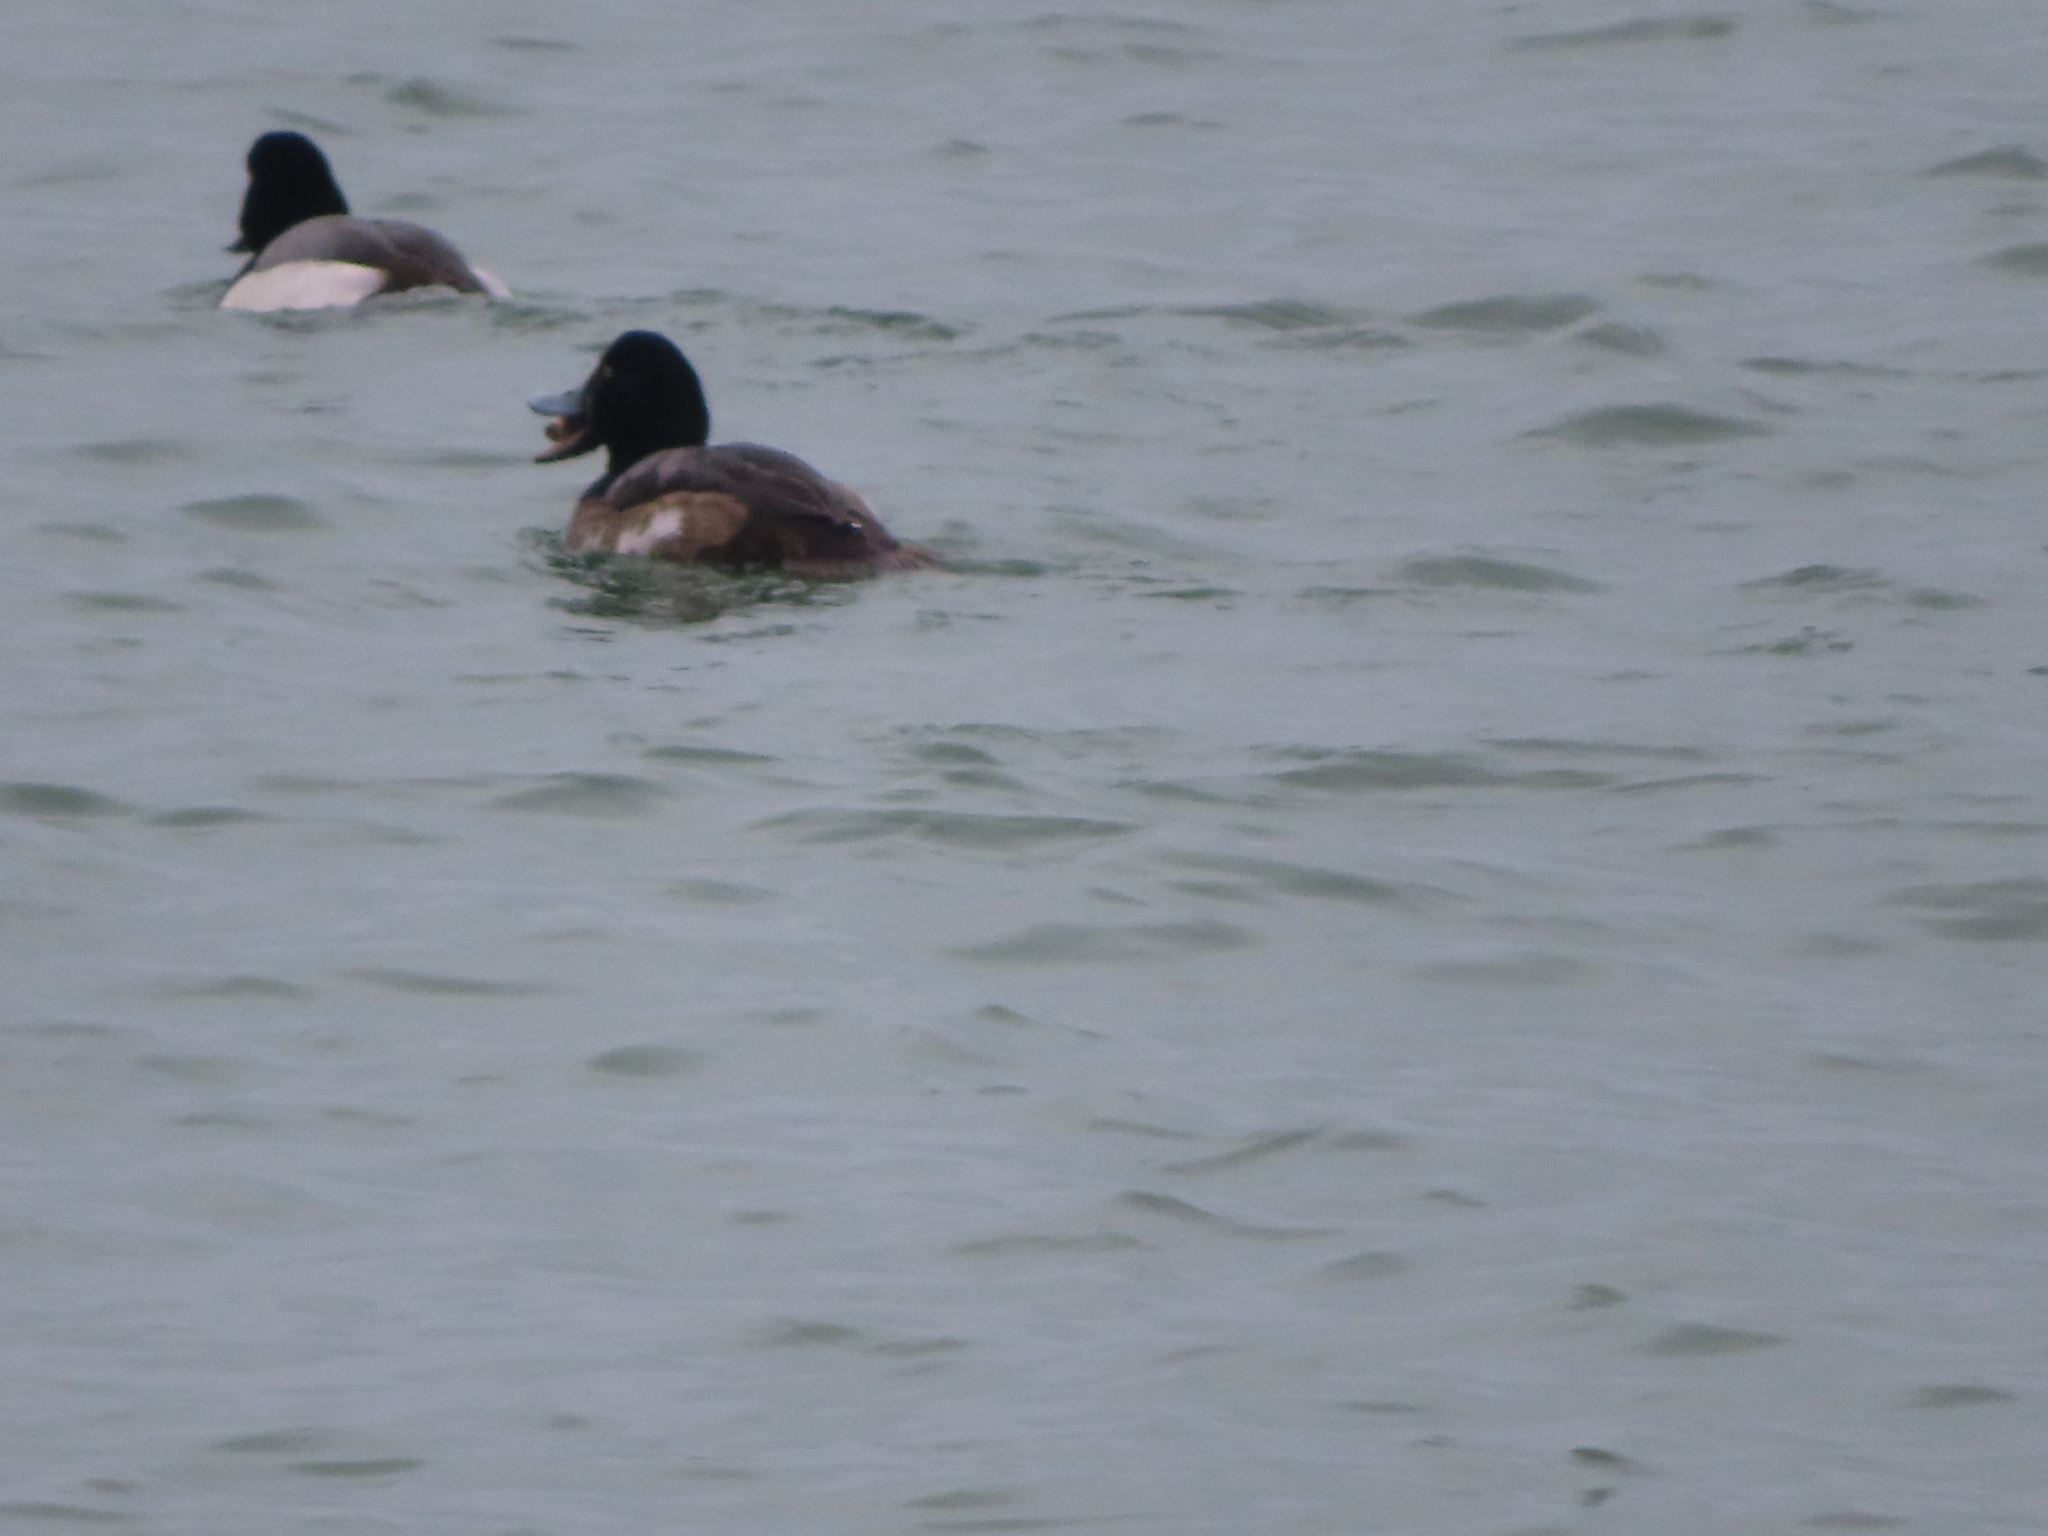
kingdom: Animalia
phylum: Mollusca
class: Bivalvia
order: Myida
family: Dreissenidae
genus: Dreissena
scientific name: Dreissena
